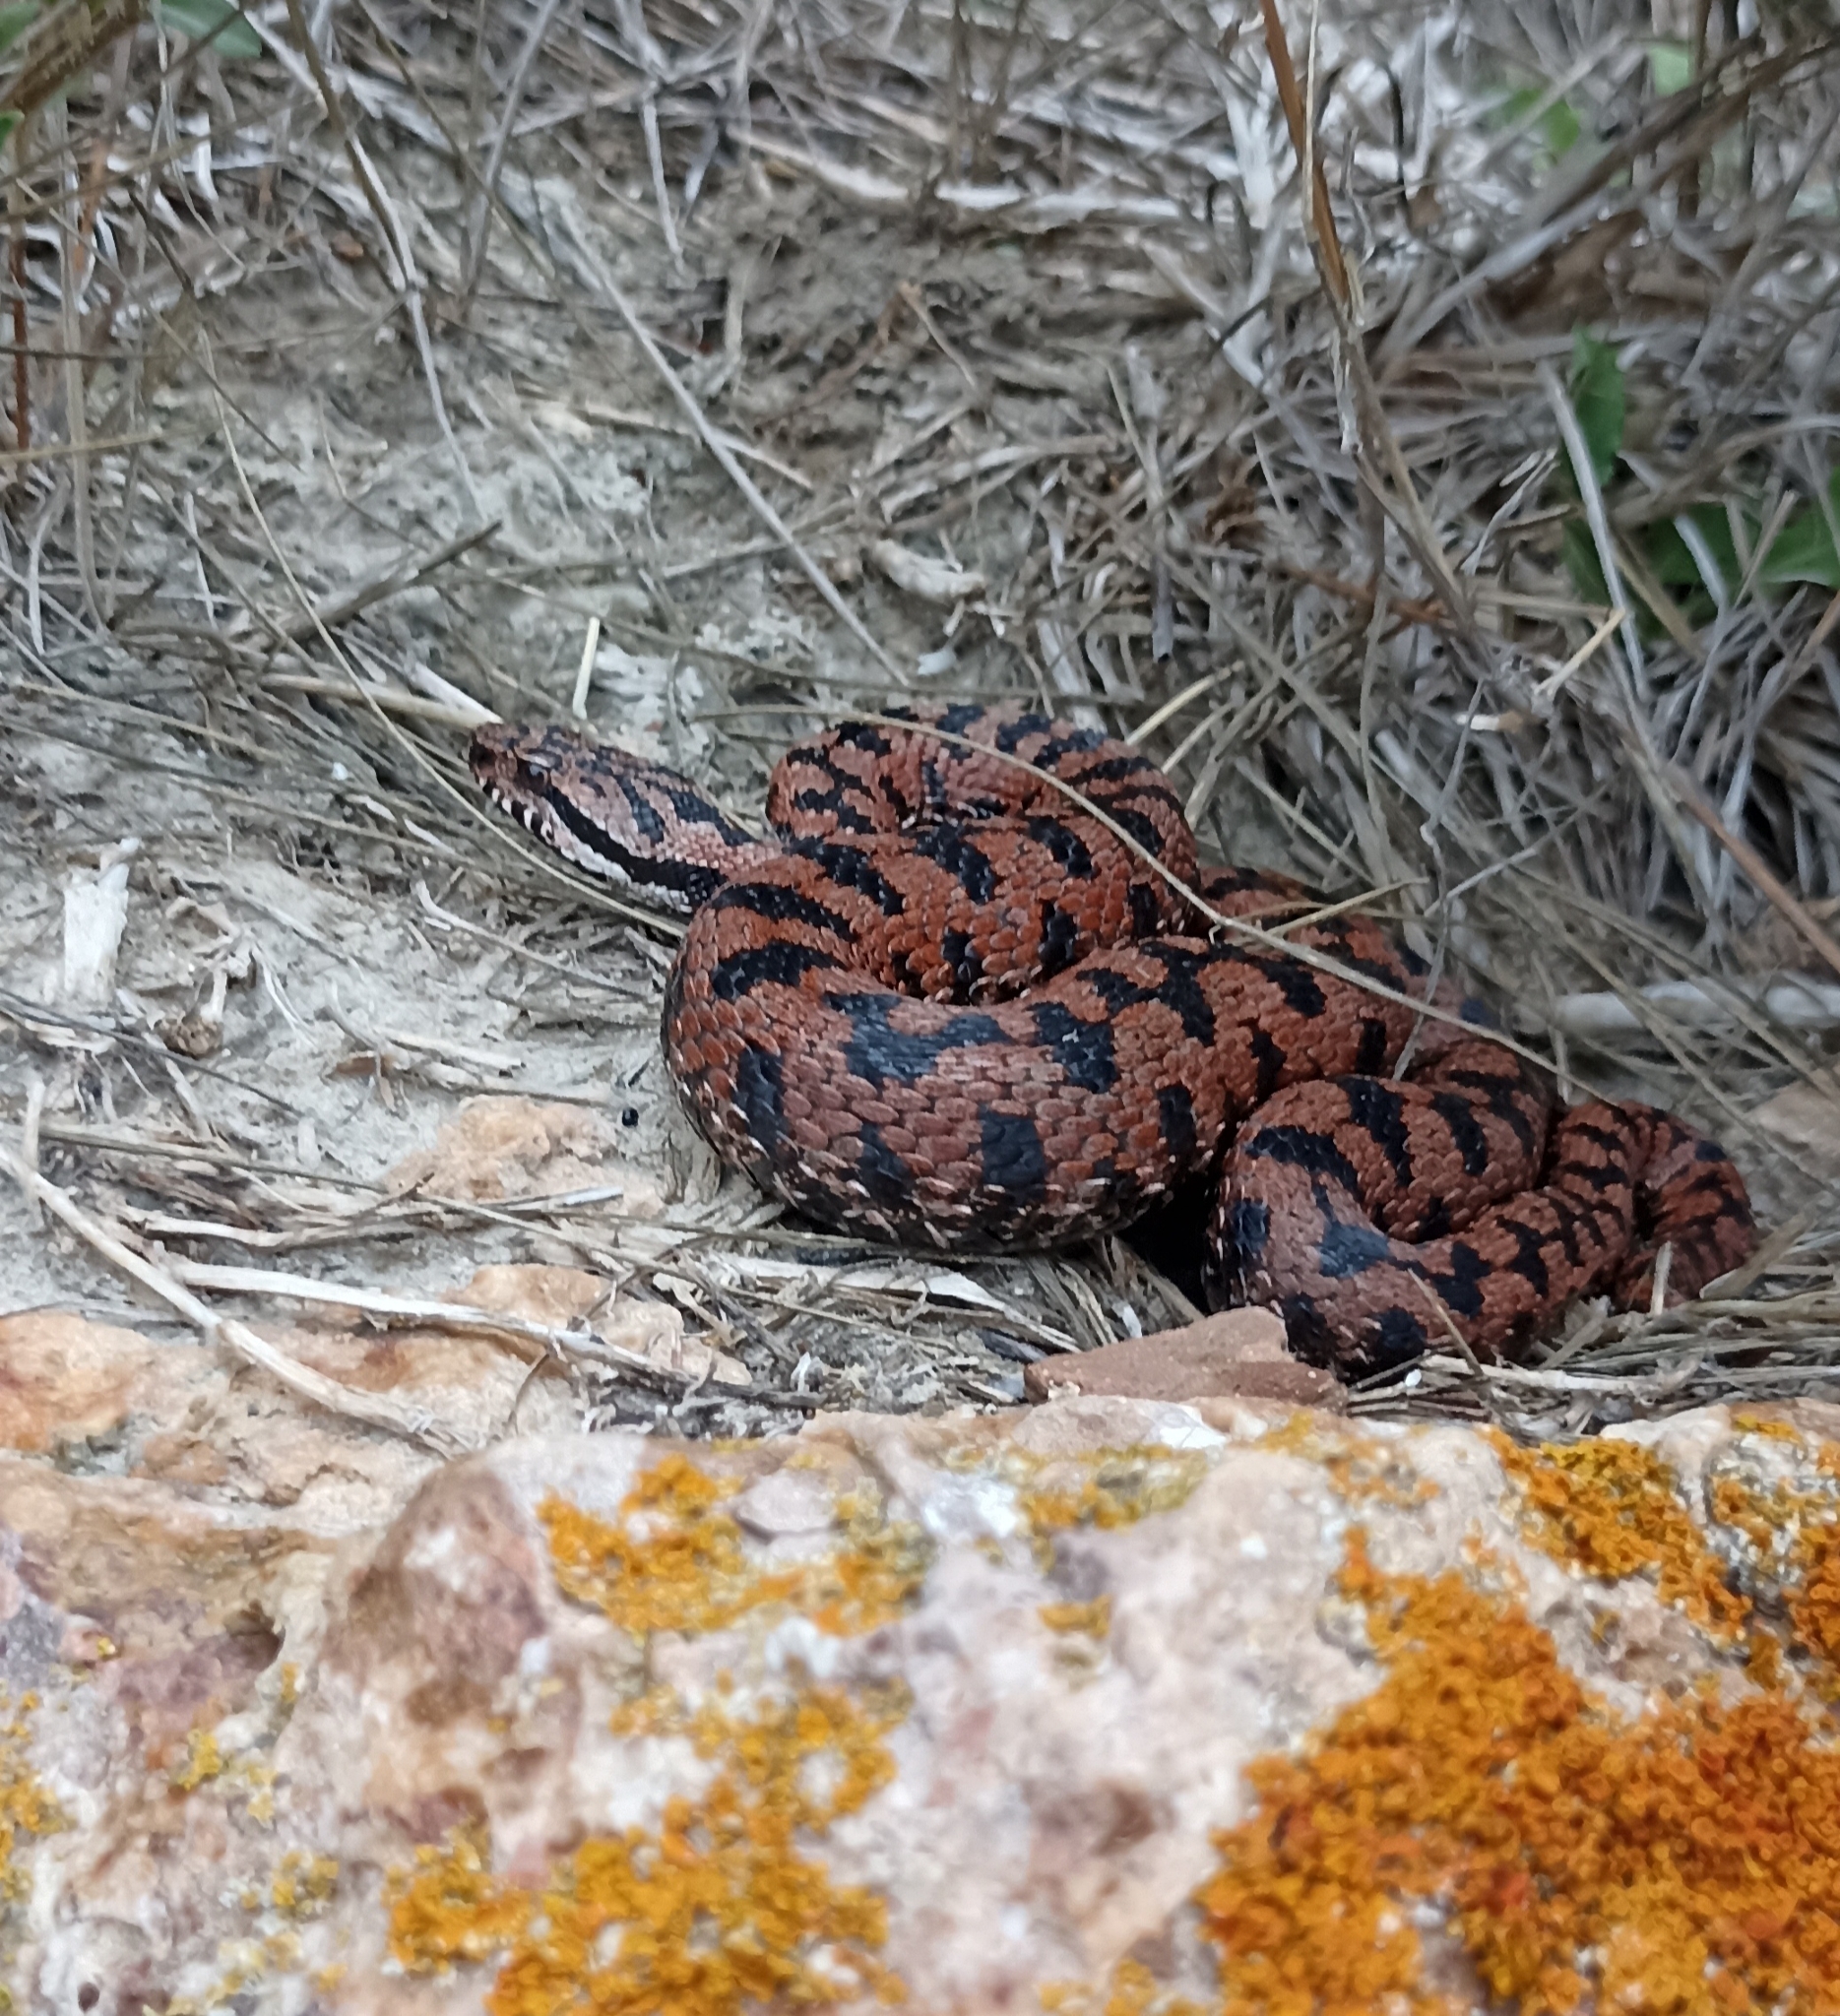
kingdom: Animalia
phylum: Chordata
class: Squamata
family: Viperidae
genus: Vipera
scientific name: Vipera aspis
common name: Asp viper
